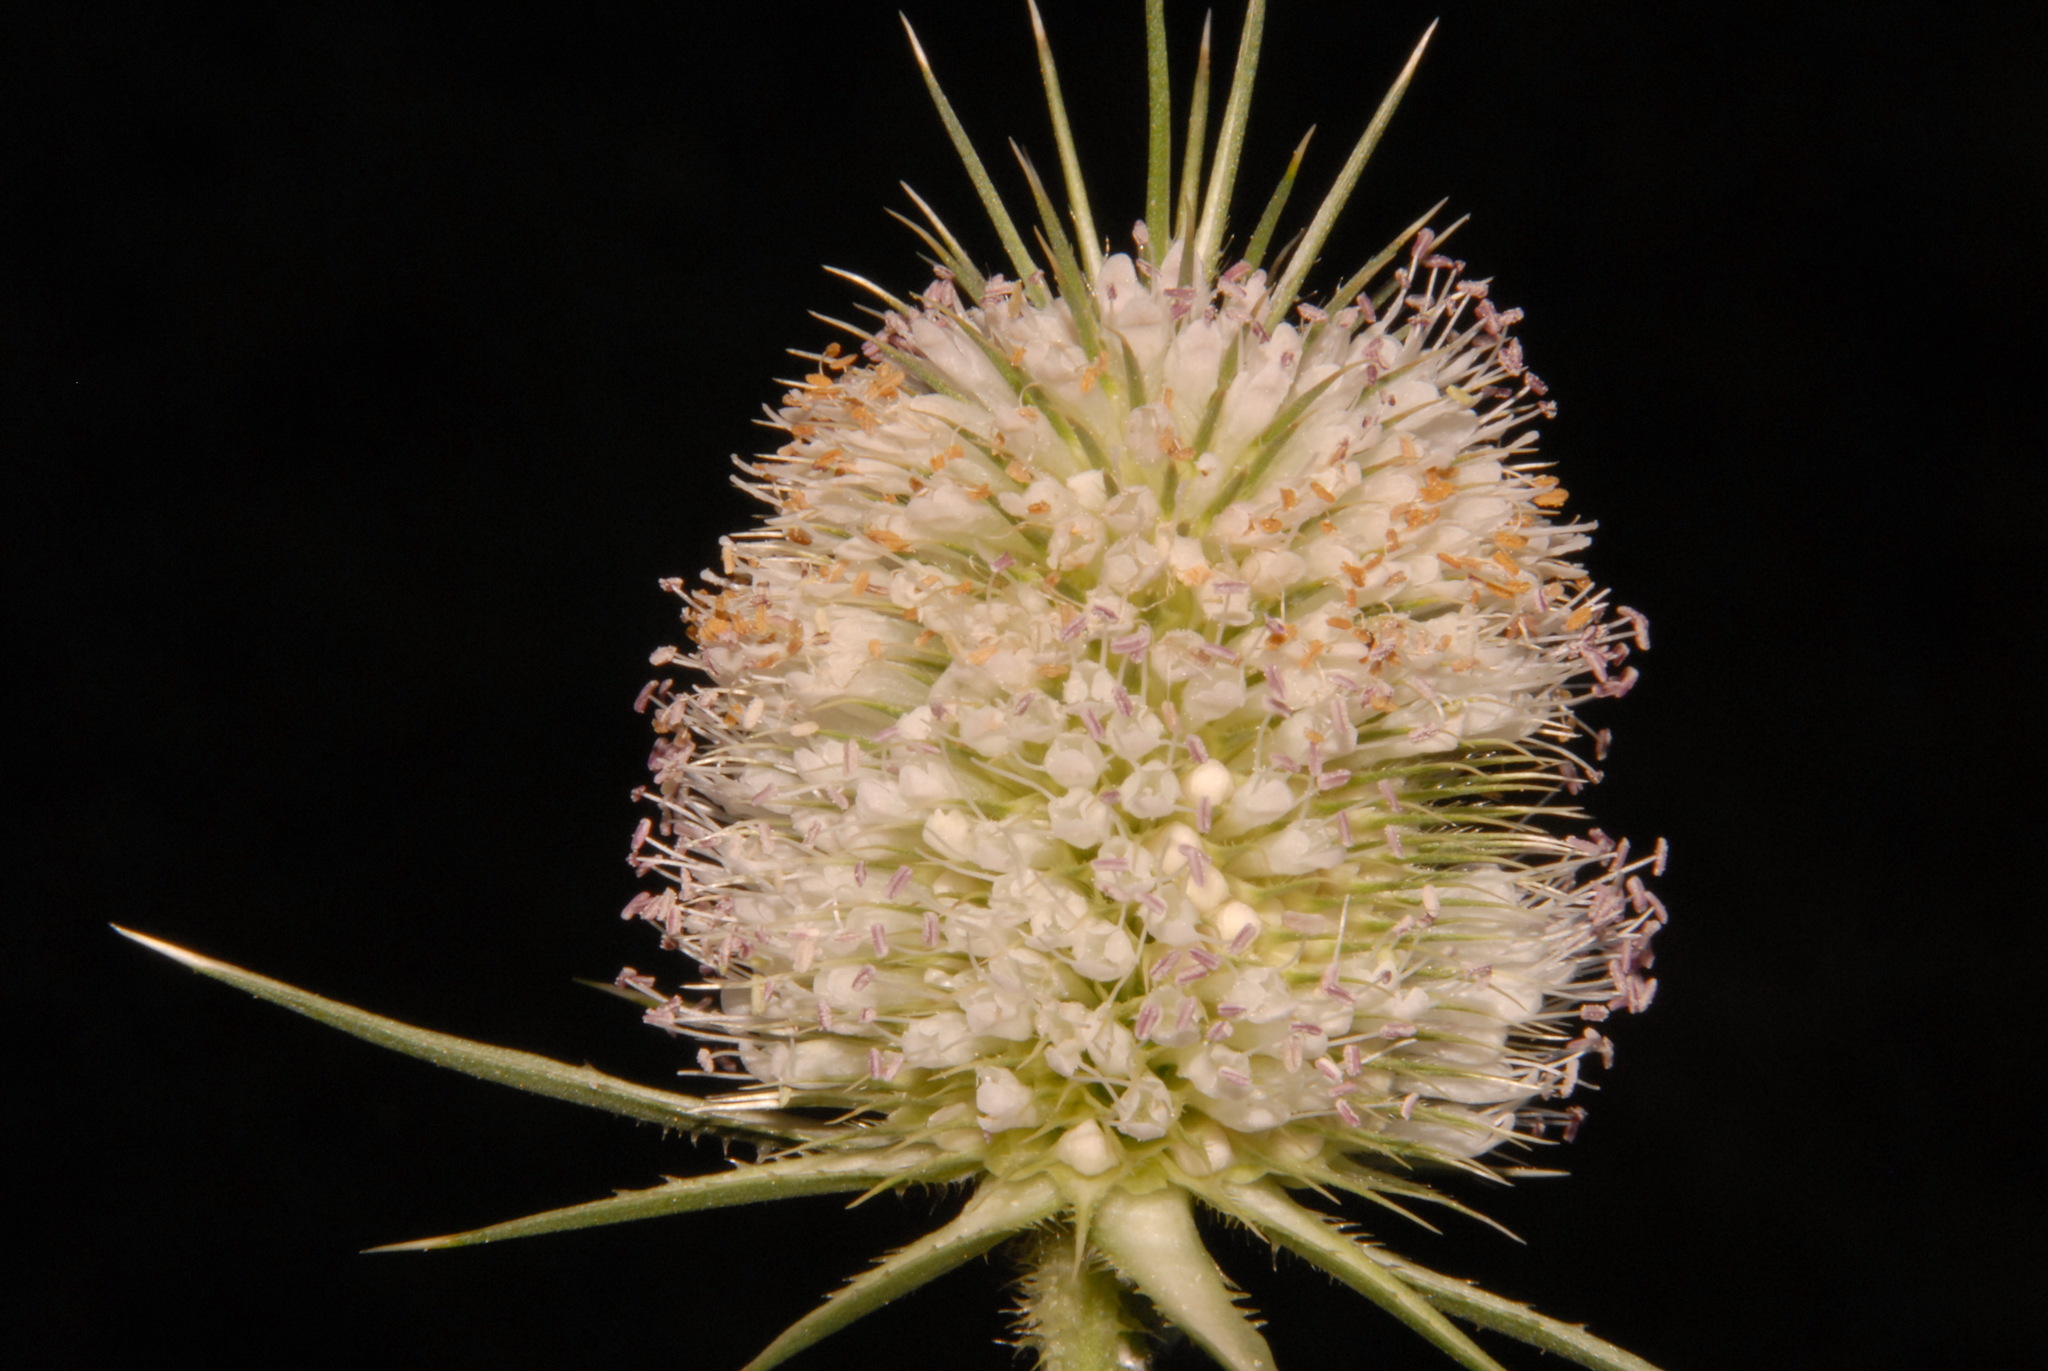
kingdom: Plantae
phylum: Tracheophyta
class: Magnoliopsida
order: Dipsacales
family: Caprifoliaceae
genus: Dipsacus
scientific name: Dipsacus laciniatus
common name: Cut-leaved teasel
